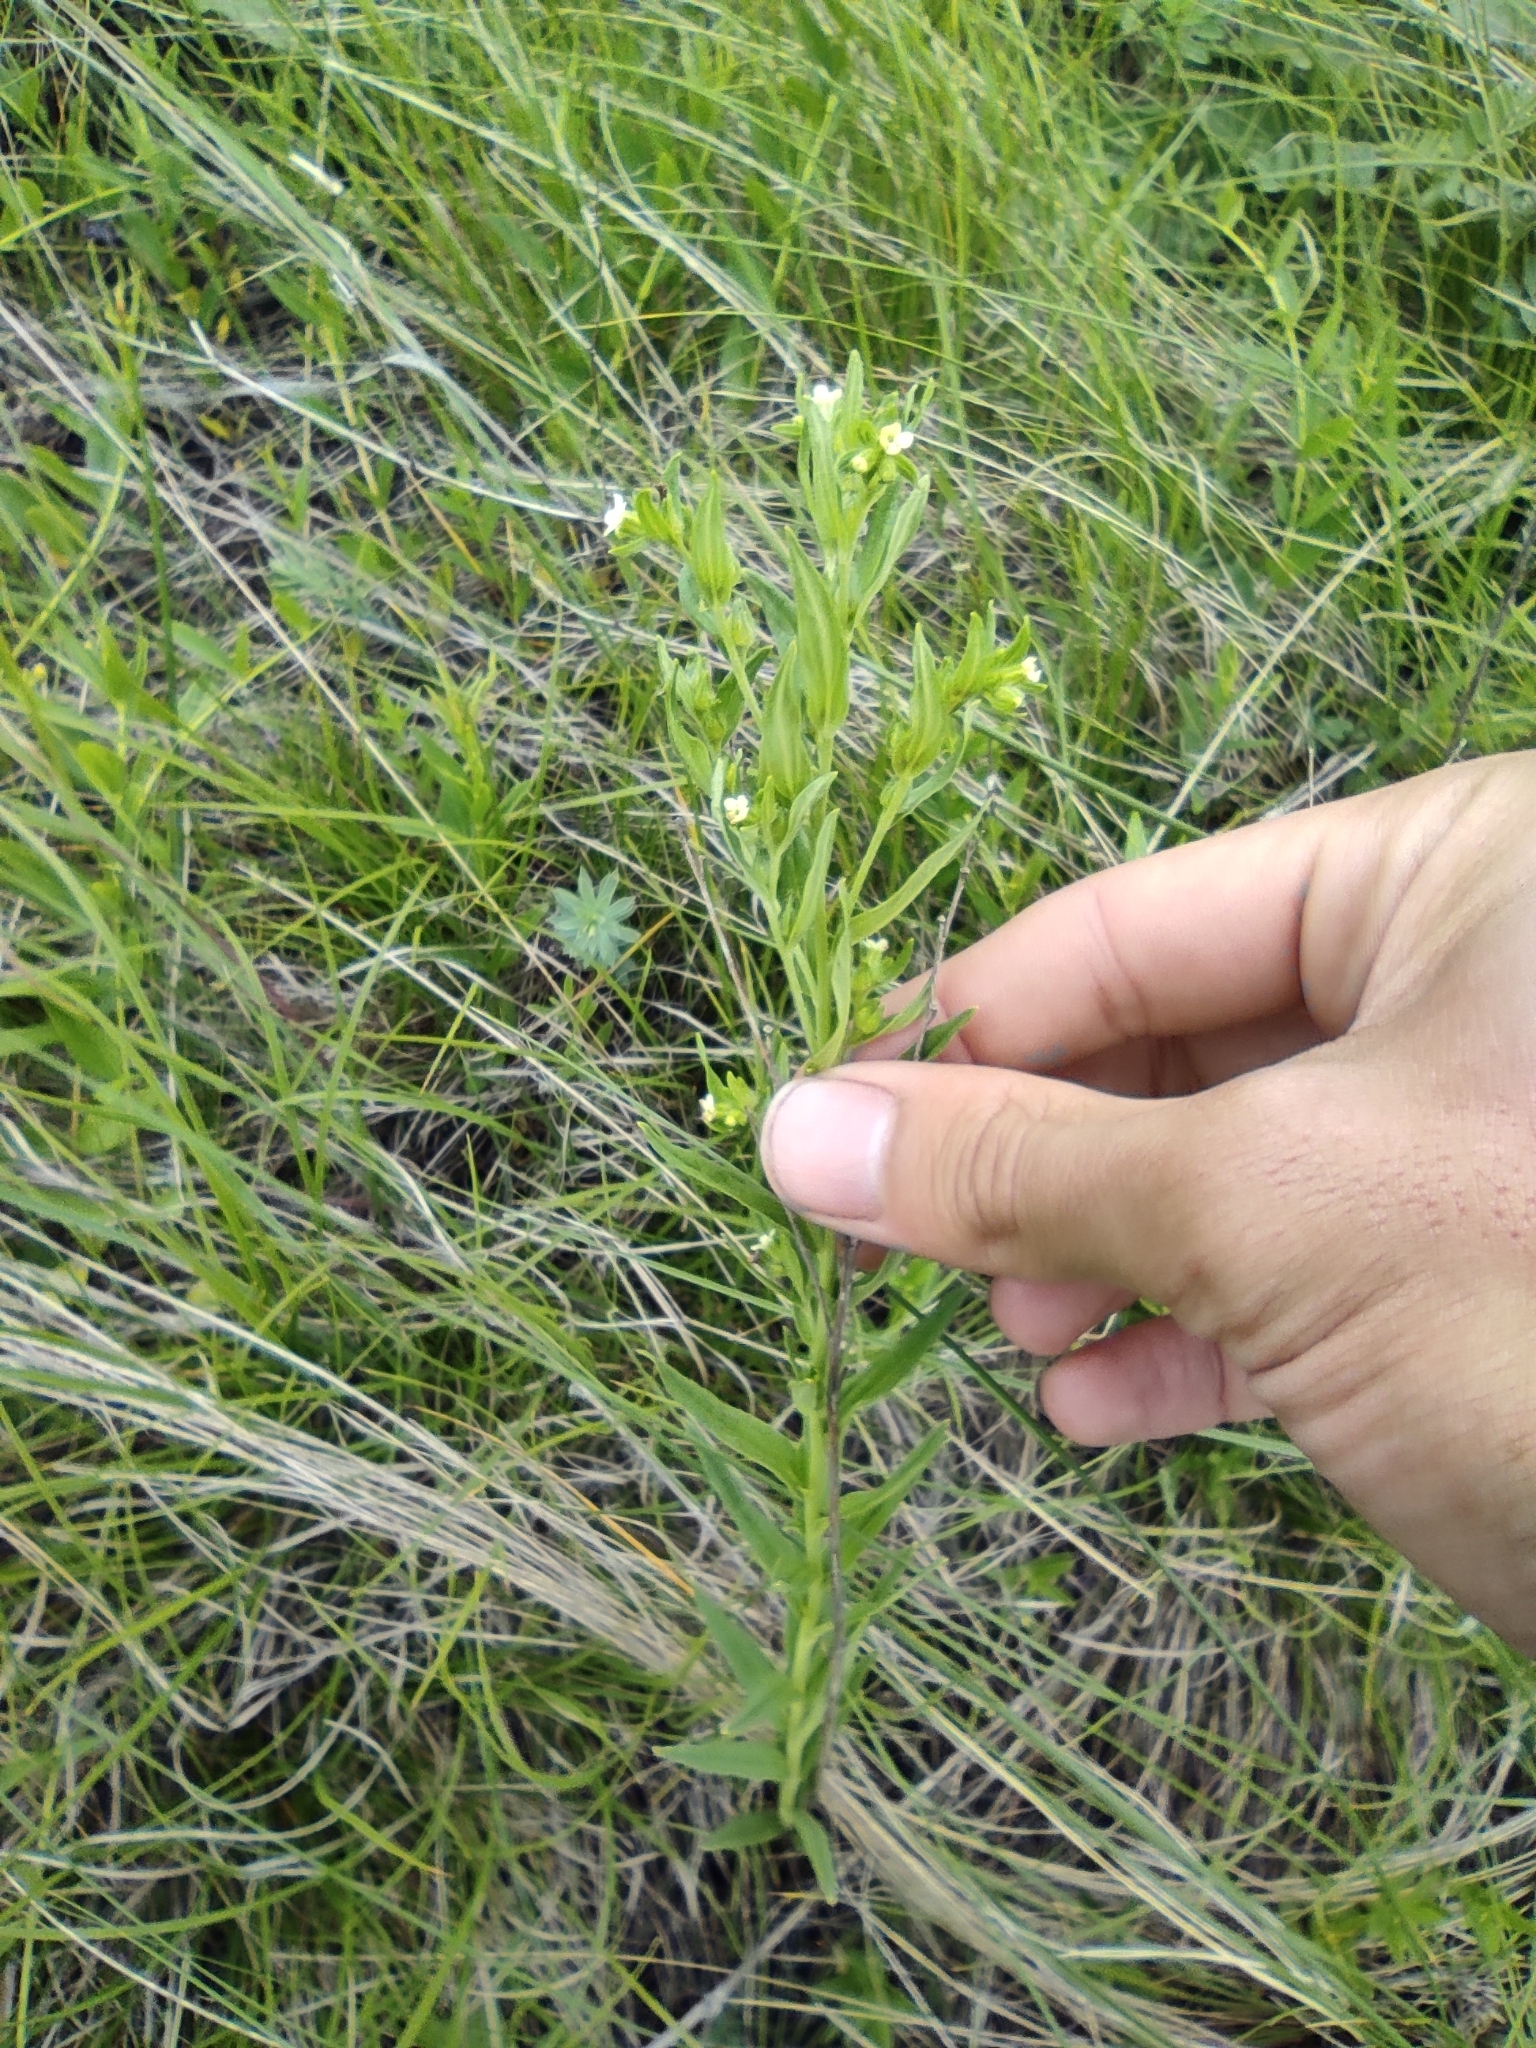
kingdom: Plantae
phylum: Tracheophyta
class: Magnoliopsida
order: Boraginales
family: Boraginaceae
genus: Lithospermum
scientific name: Lithospermum officinale
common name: Common gromwell
